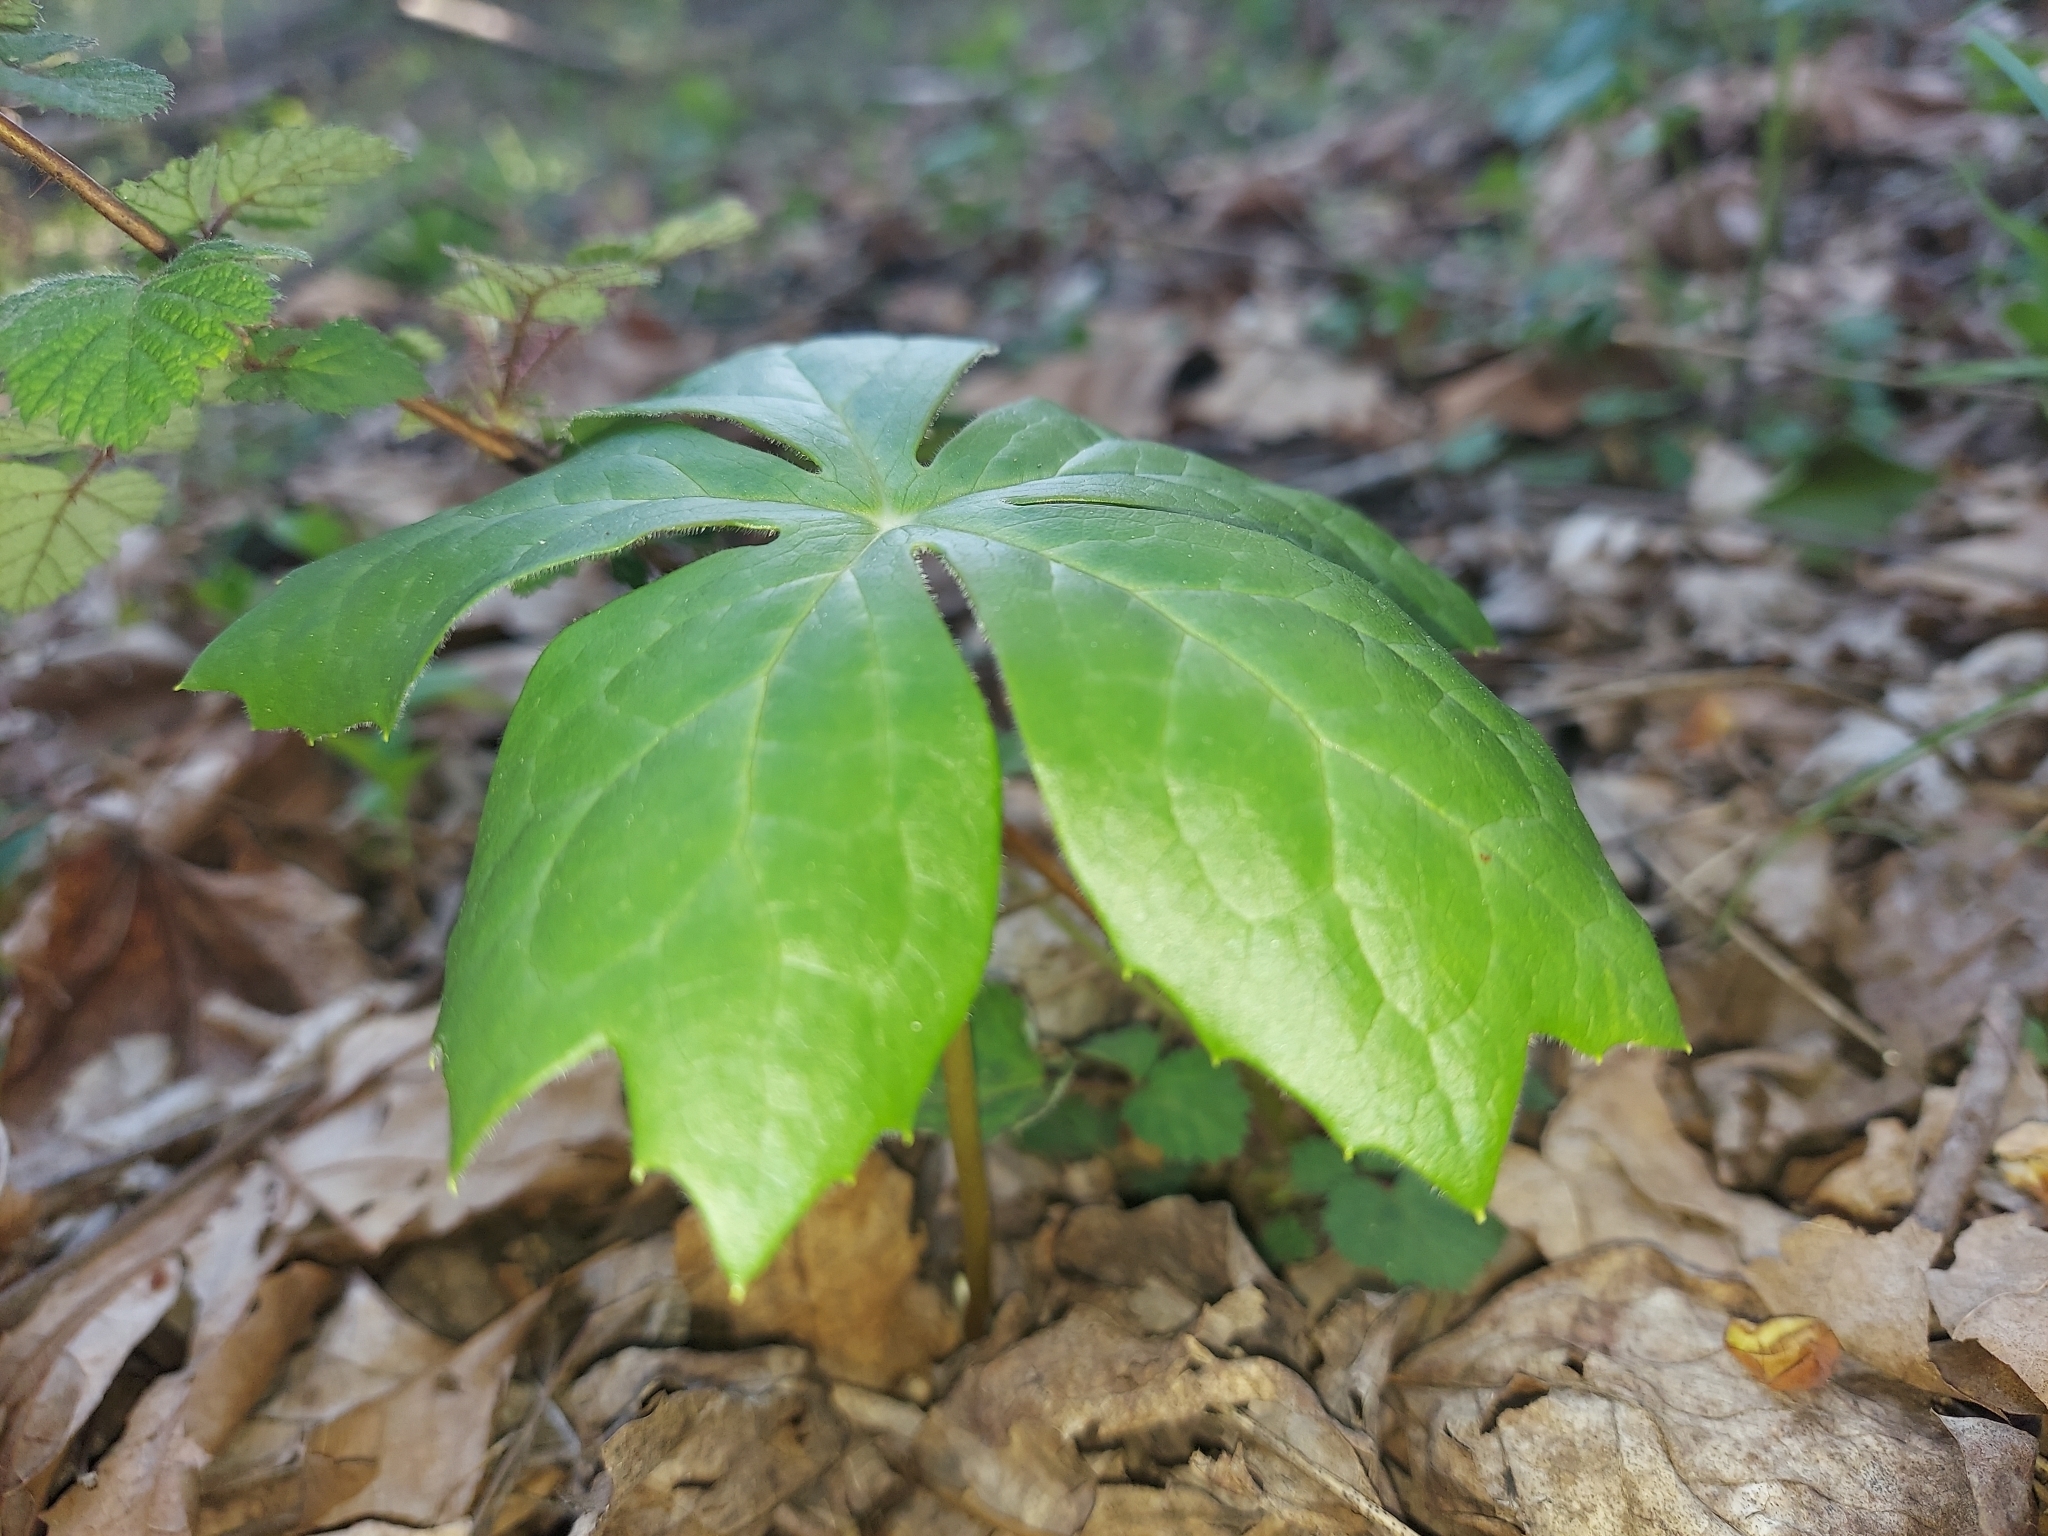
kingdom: Plantae
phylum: Tracheophyta
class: Magnoliopsida
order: Ranunculales
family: Berberidaceae
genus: Podophyllum
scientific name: Podophyllum peltatum
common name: Wild mandrake
